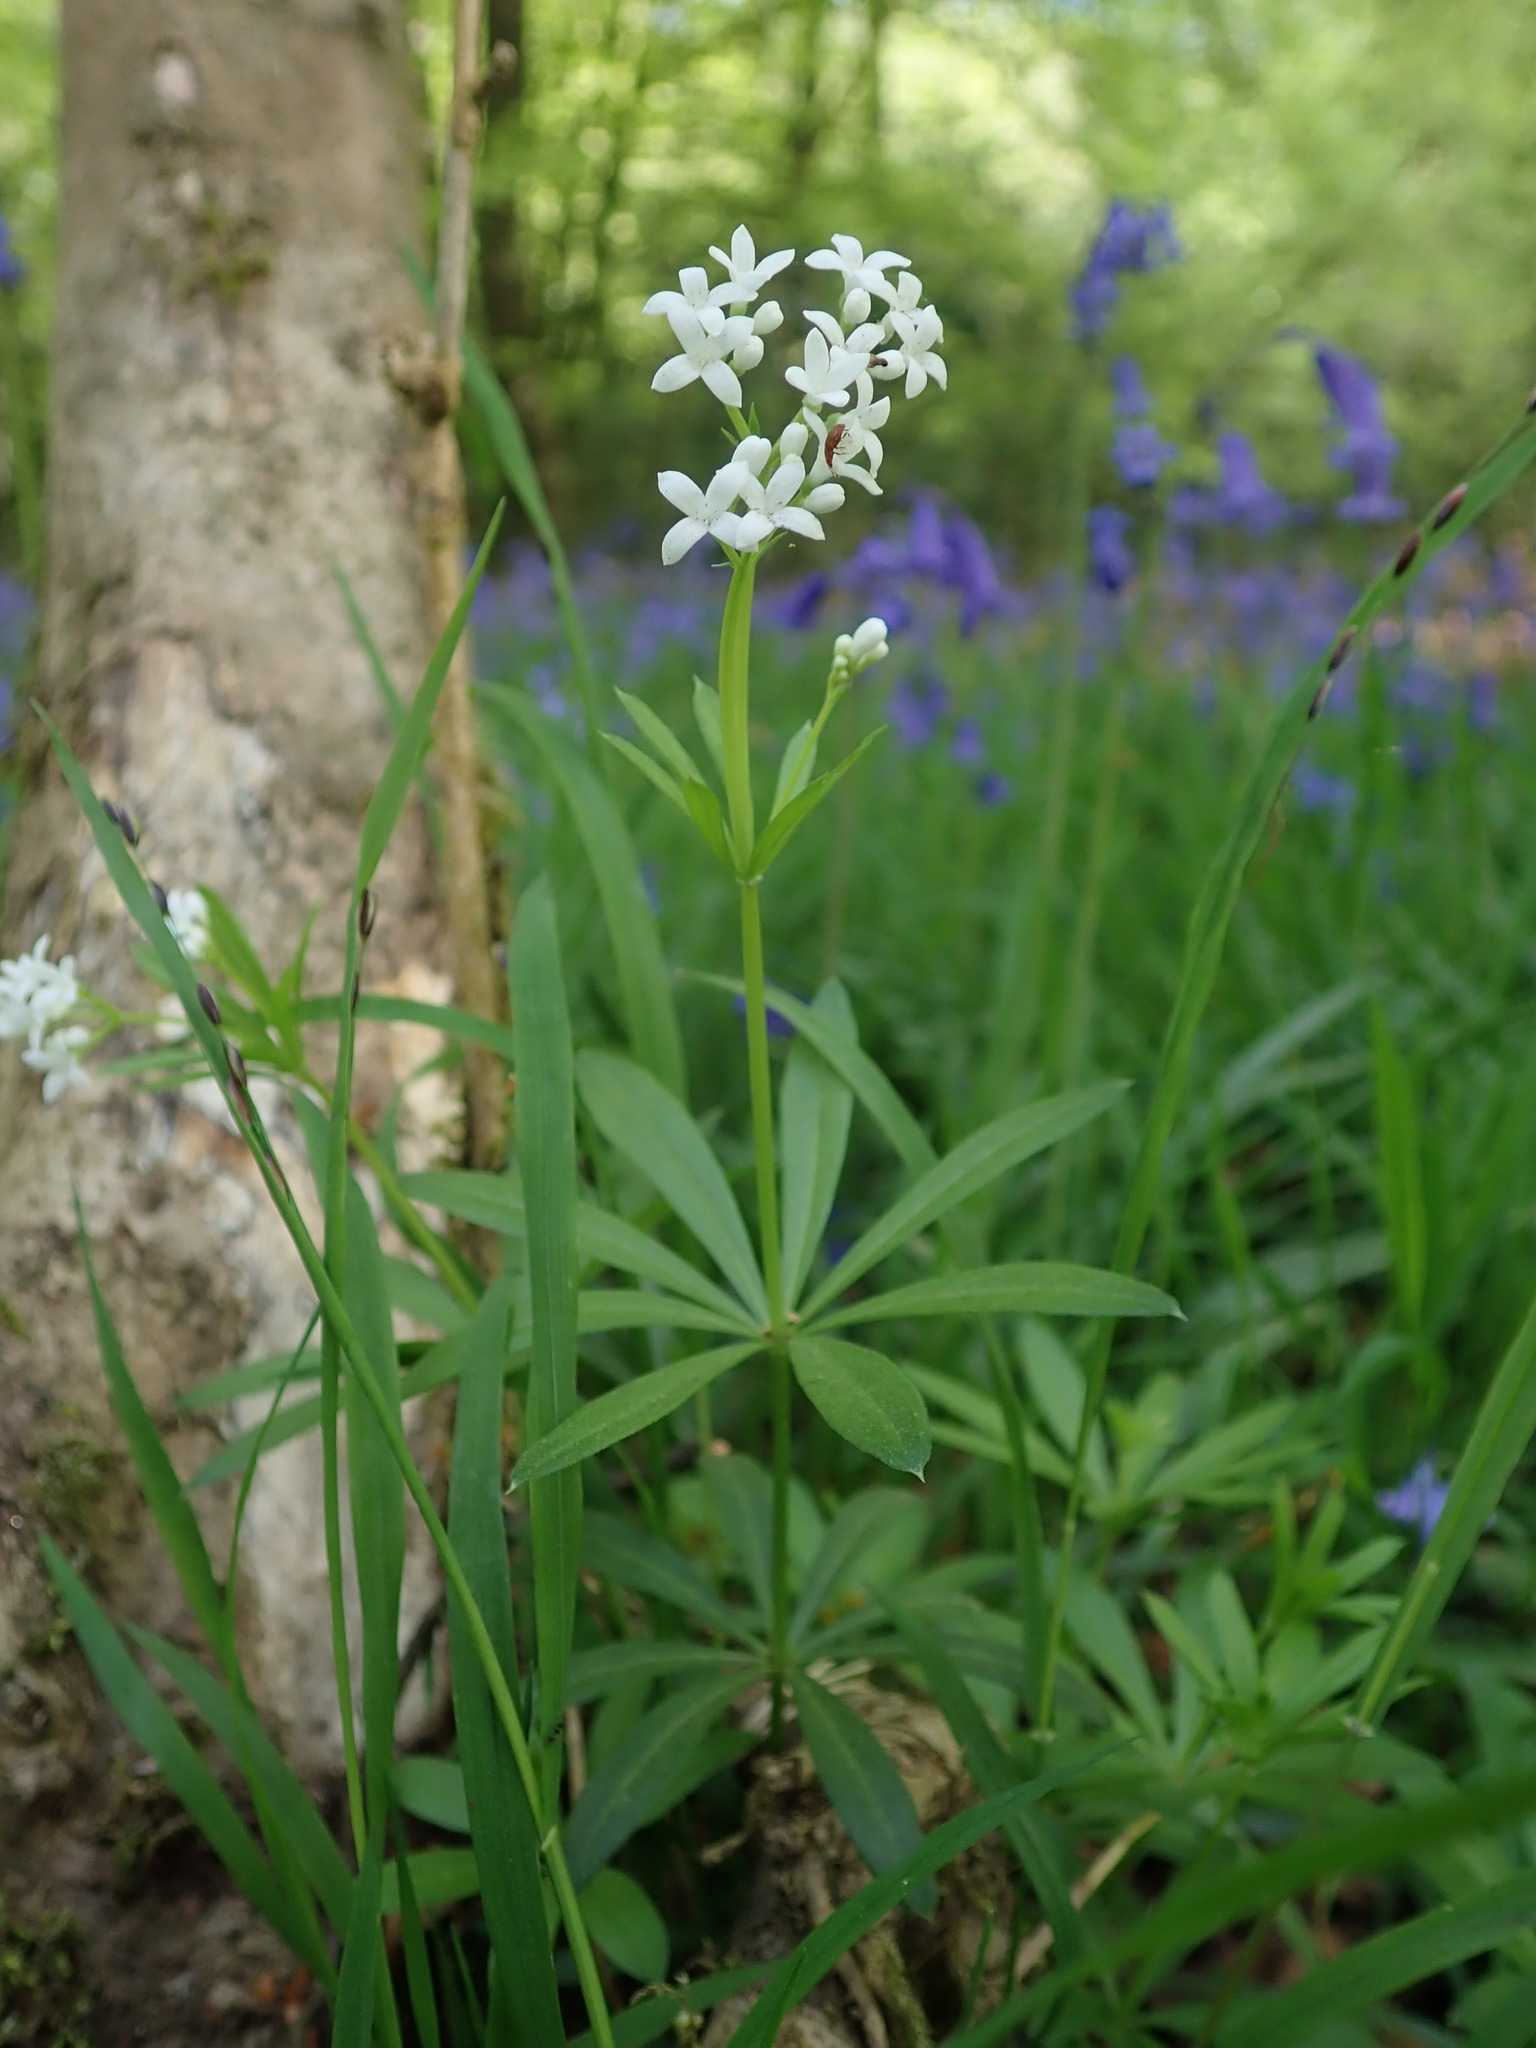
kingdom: Plantae
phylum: Tracheophyta
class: Magnoliopsida
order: Gentianales
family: Rubiaceae
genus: Galium
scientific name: Galium odoratum
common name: Sweet woodruff
